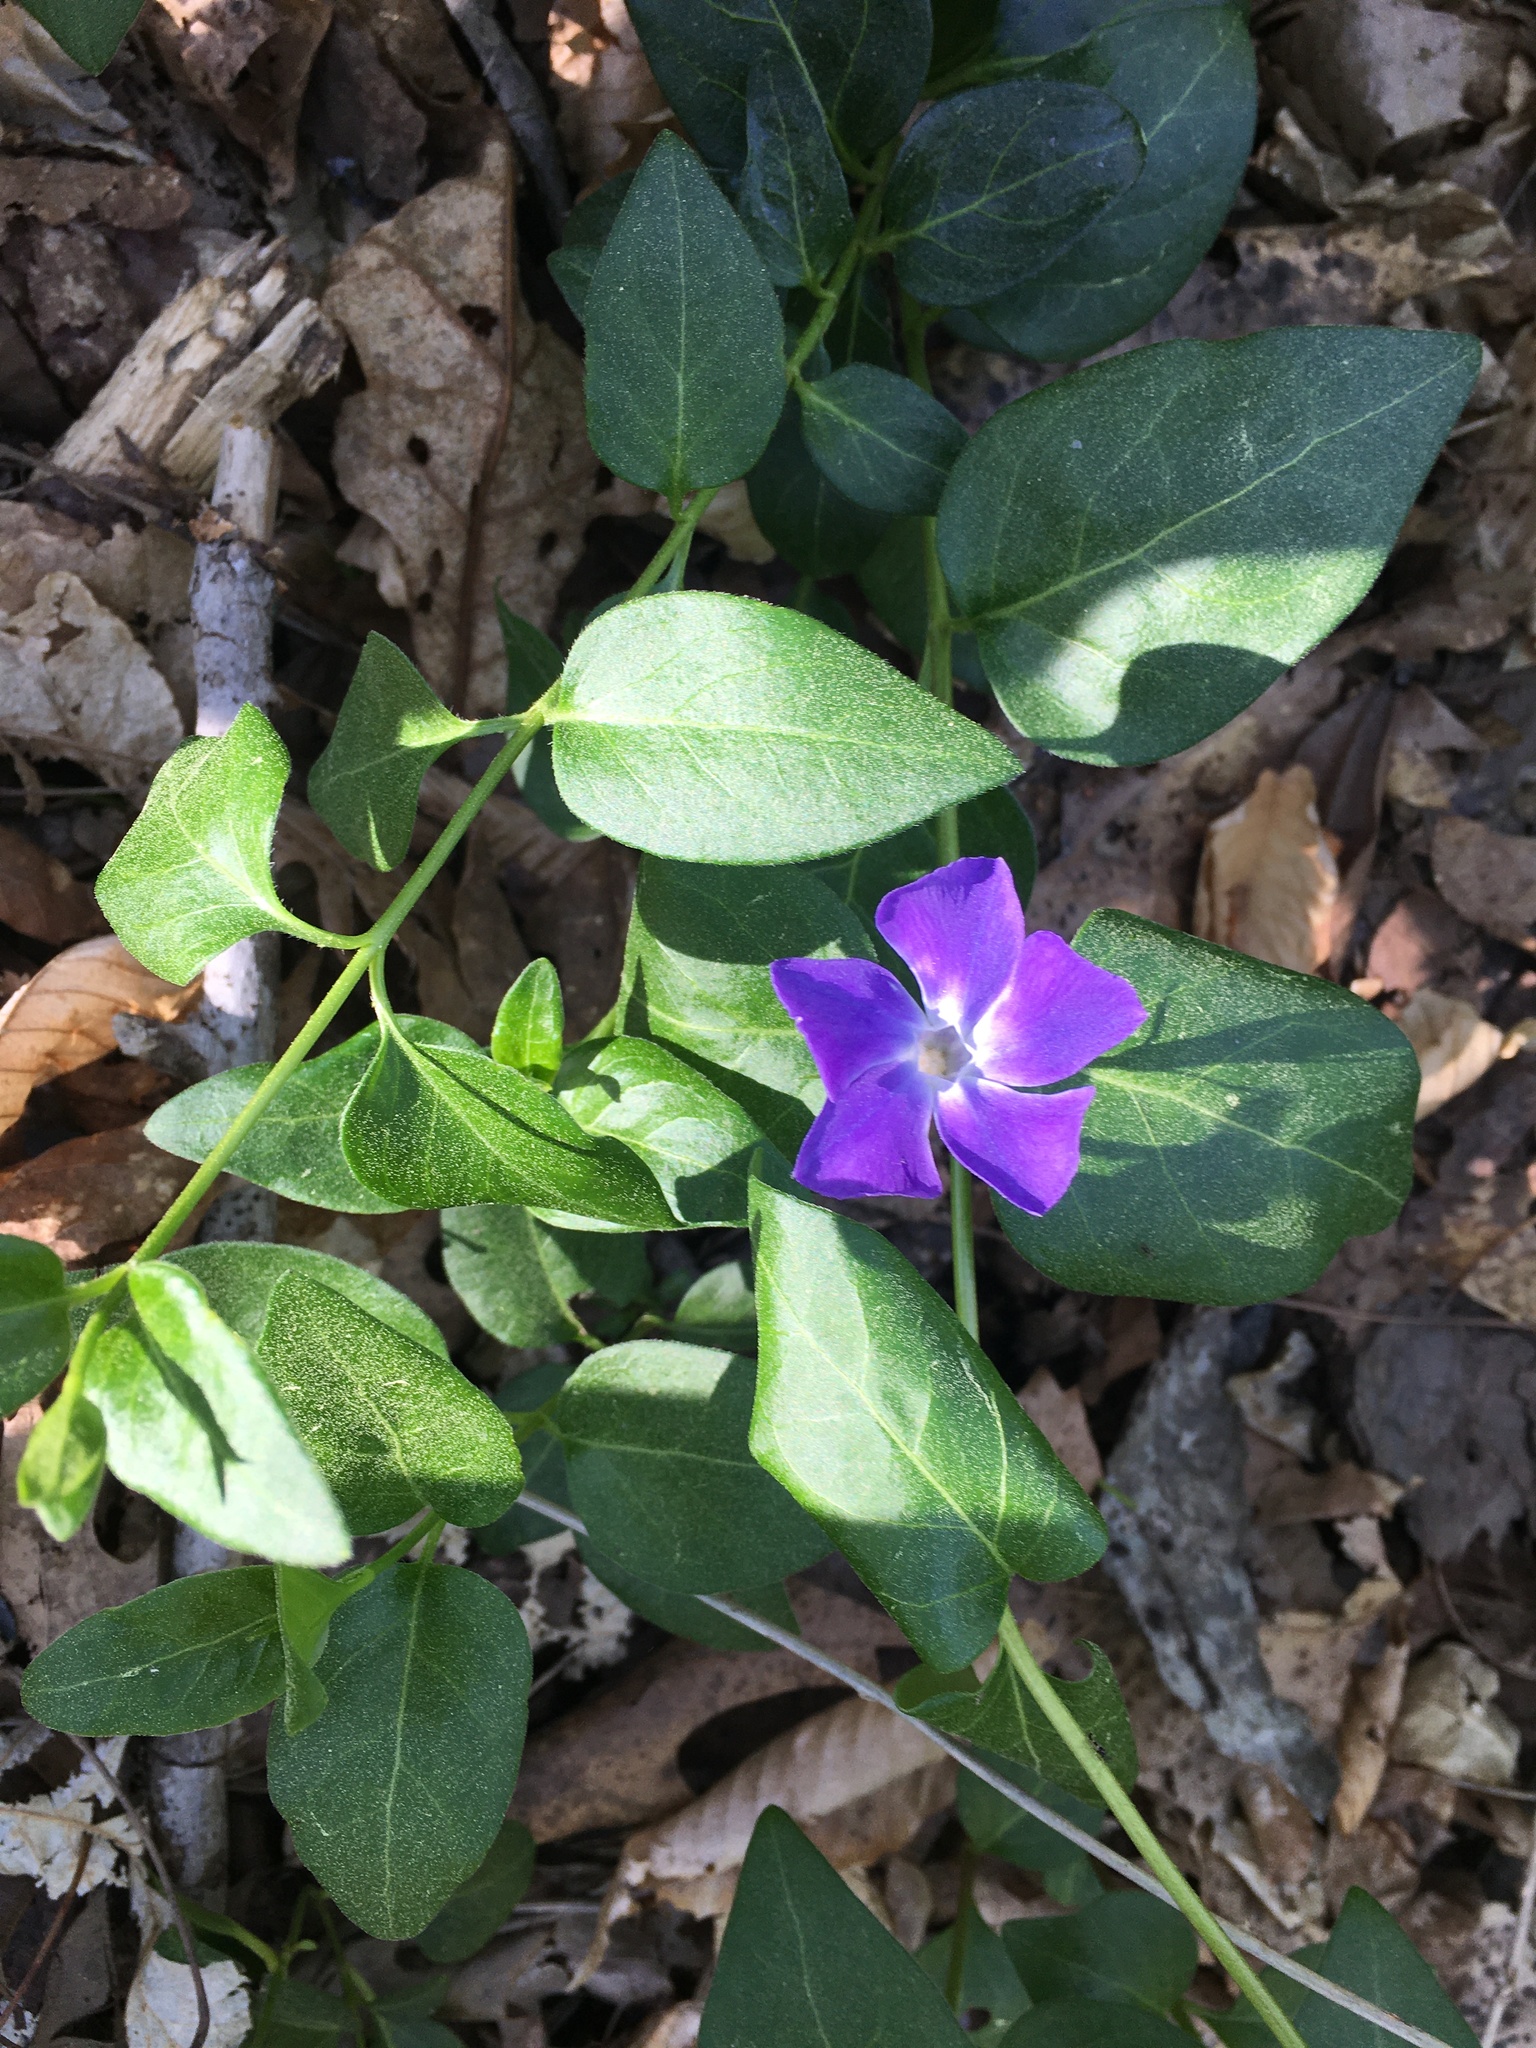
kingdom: Plantae
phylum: Tracheophyta
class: Magnoliopsida
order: Gentianales
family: Apocynaceae
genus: Vinca
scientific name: Vinca major
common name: Greater periwinkle
